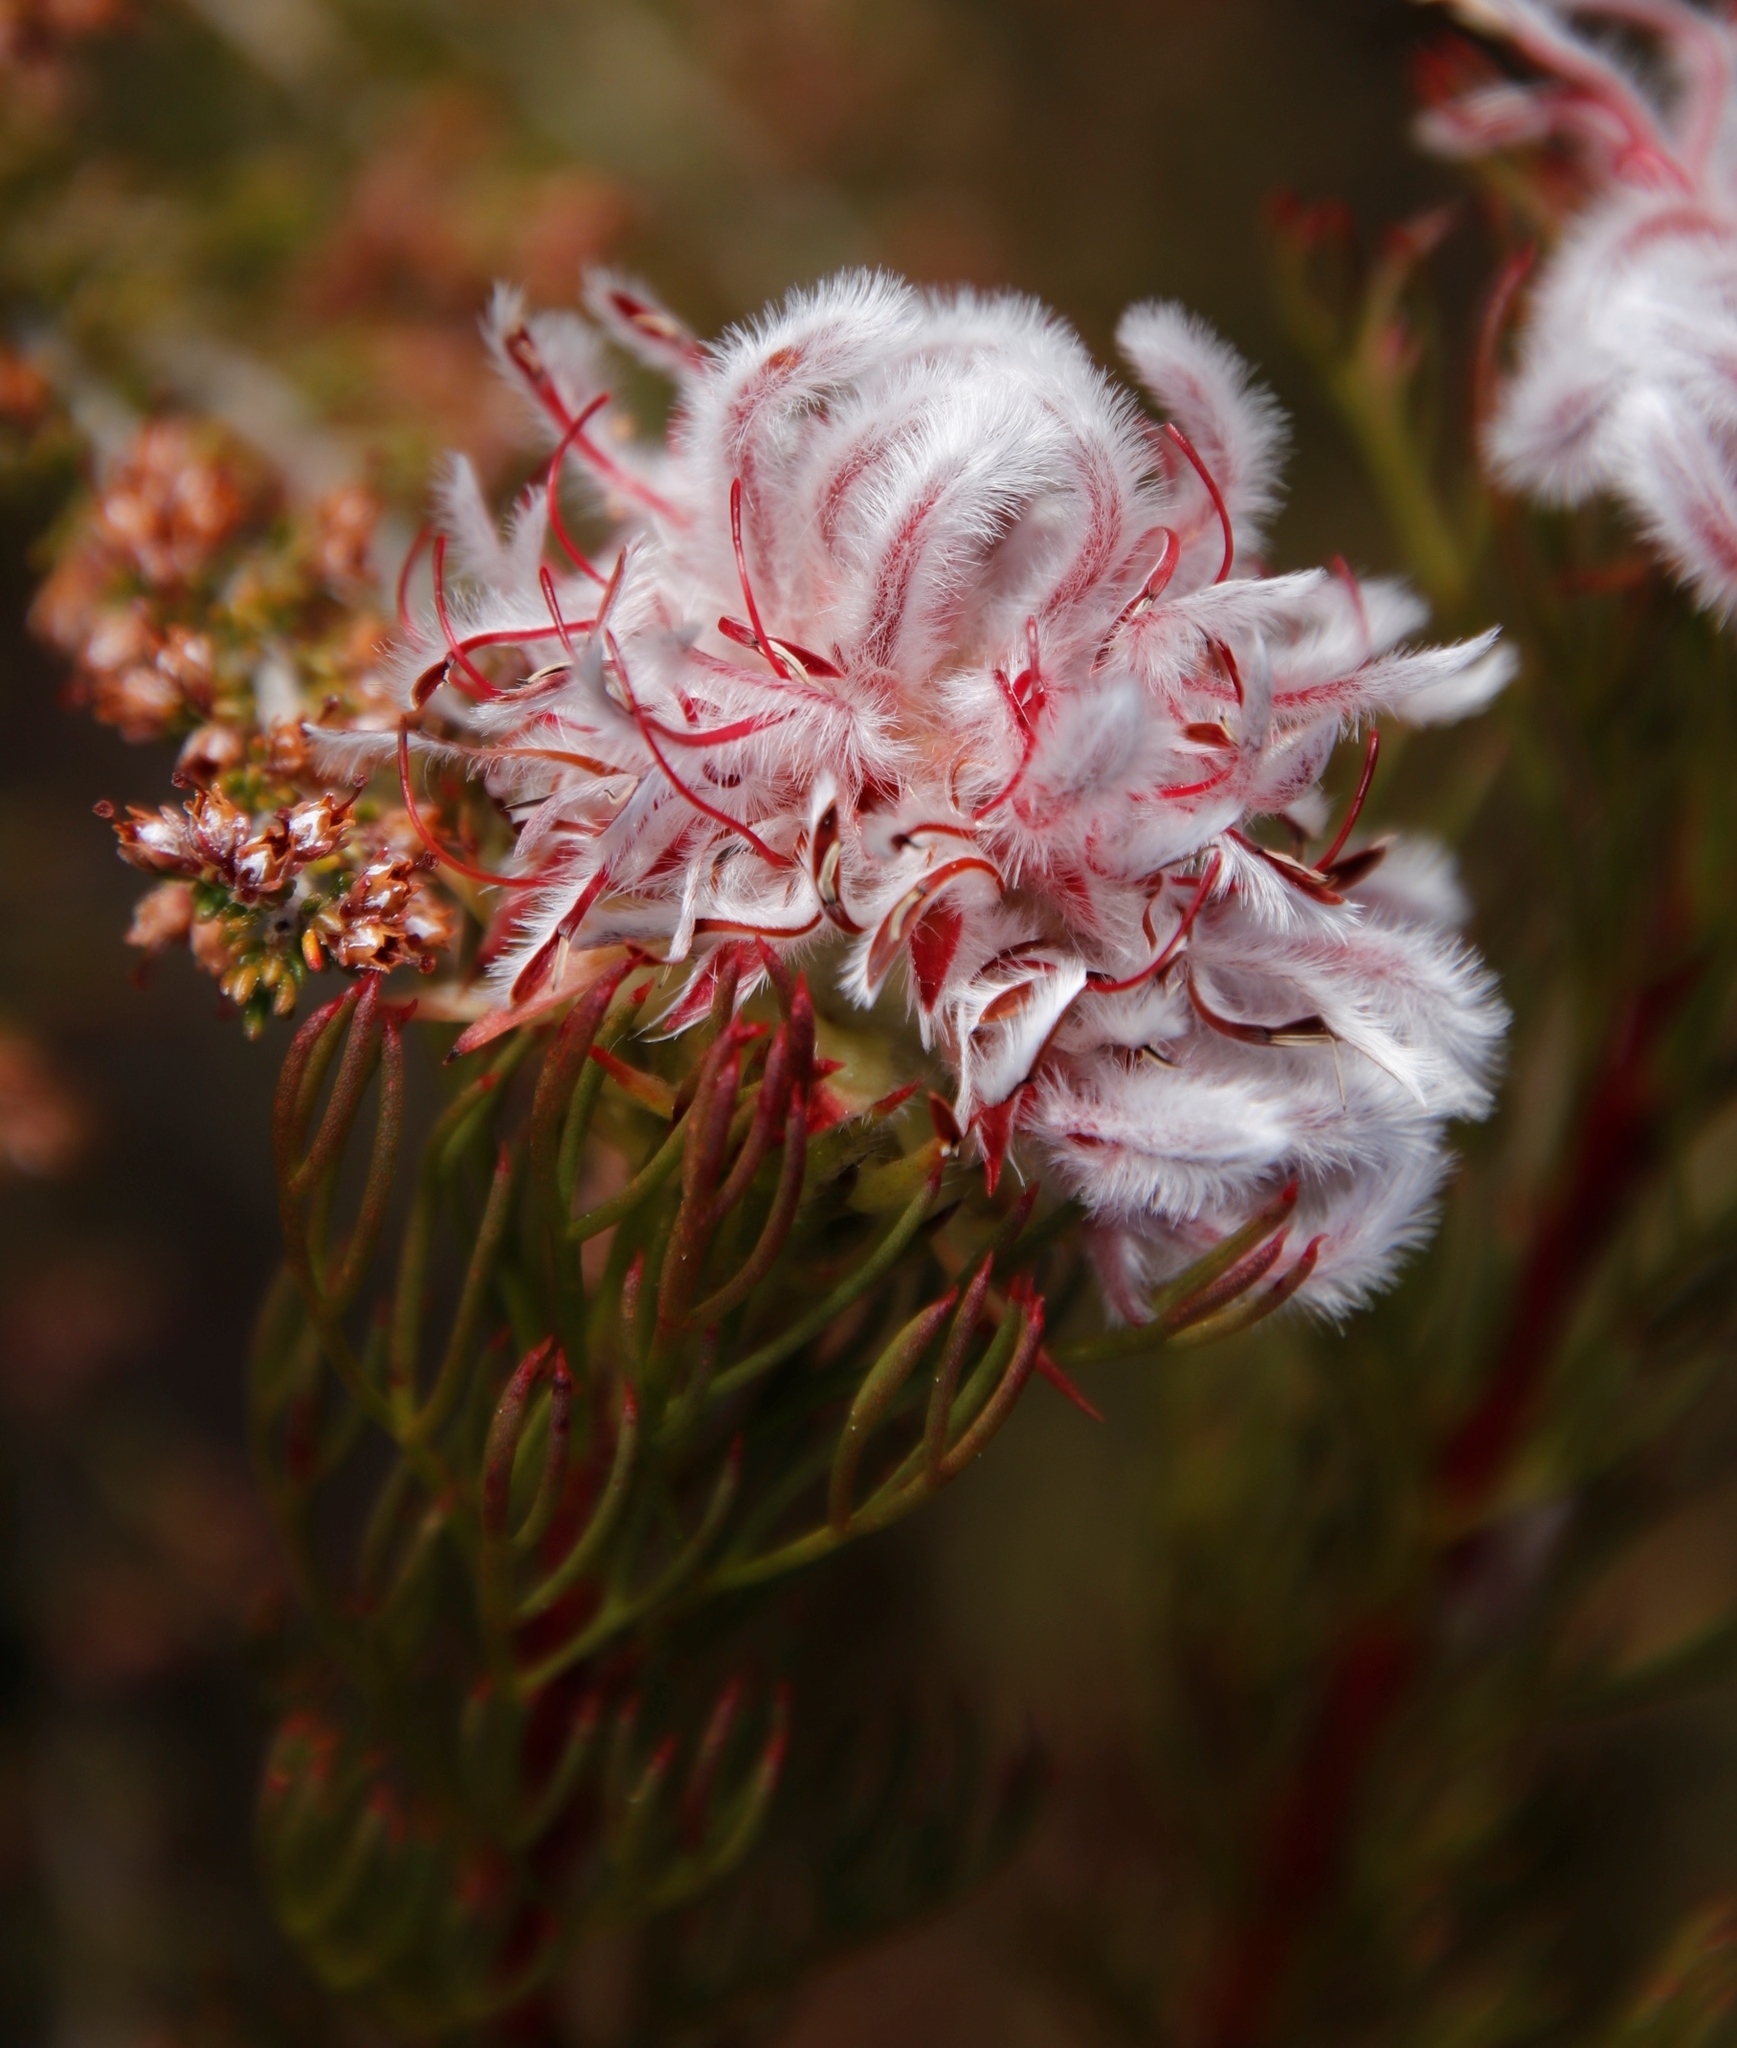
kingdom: Plantae
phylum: Tracheophyta
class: Magnoliopsida
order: Proteales
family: Proteaceae
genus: Serruria
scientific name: Serruria rostellaris
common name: Remote spiderhead
